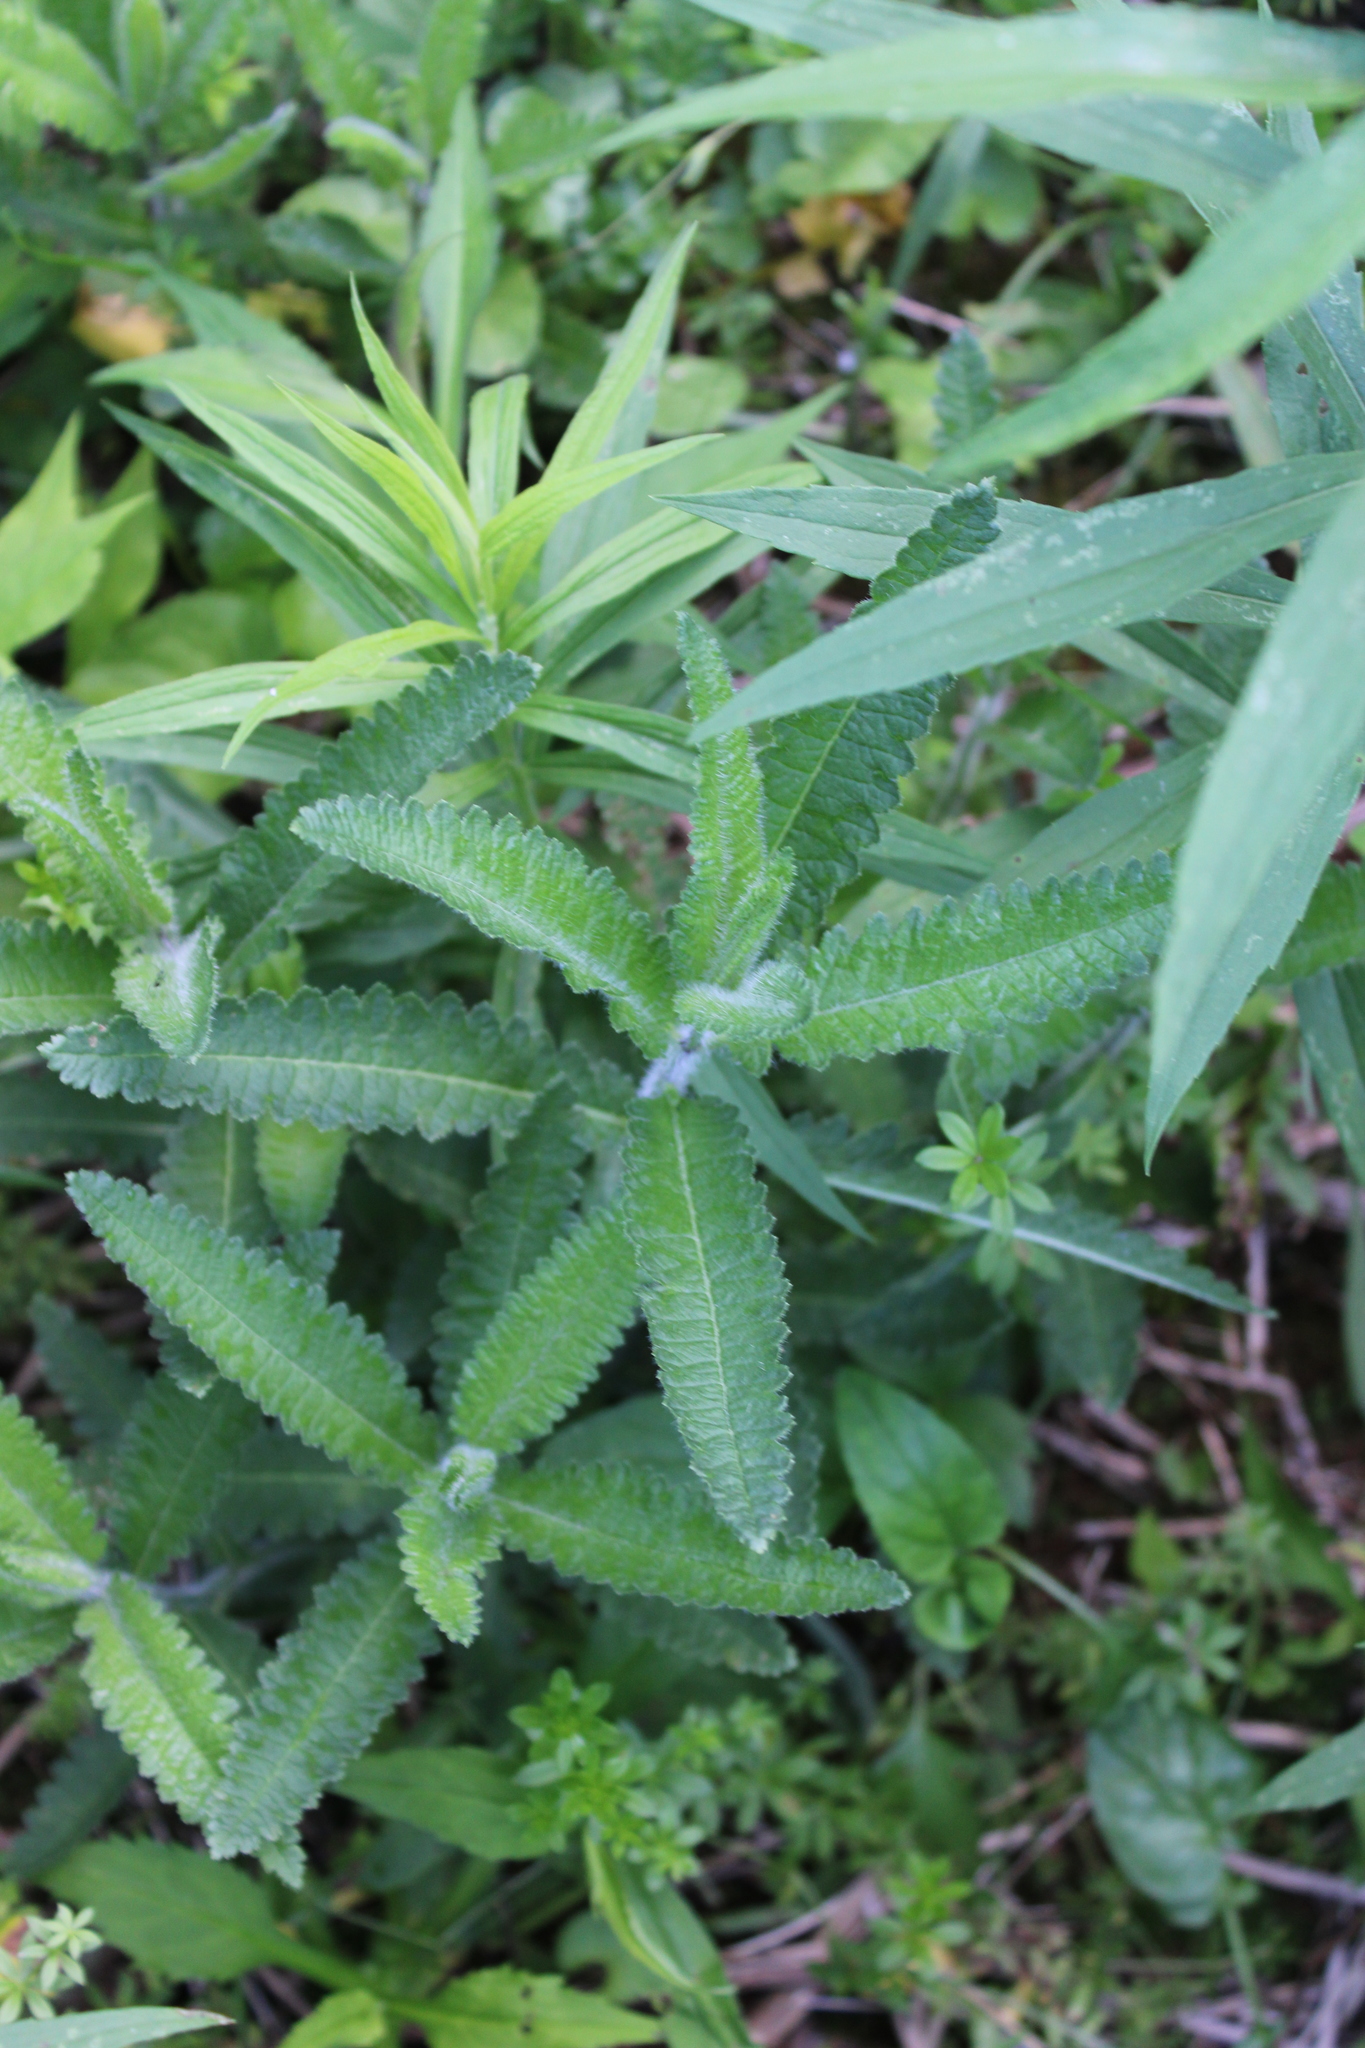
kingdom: Plantae
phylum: Tracheophyta
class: Magnoliopsida
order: Lamiales
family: Orobanchaceae
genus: Pedicularis
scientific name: Pedicularis lanceolata
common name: Swamp lousewort
